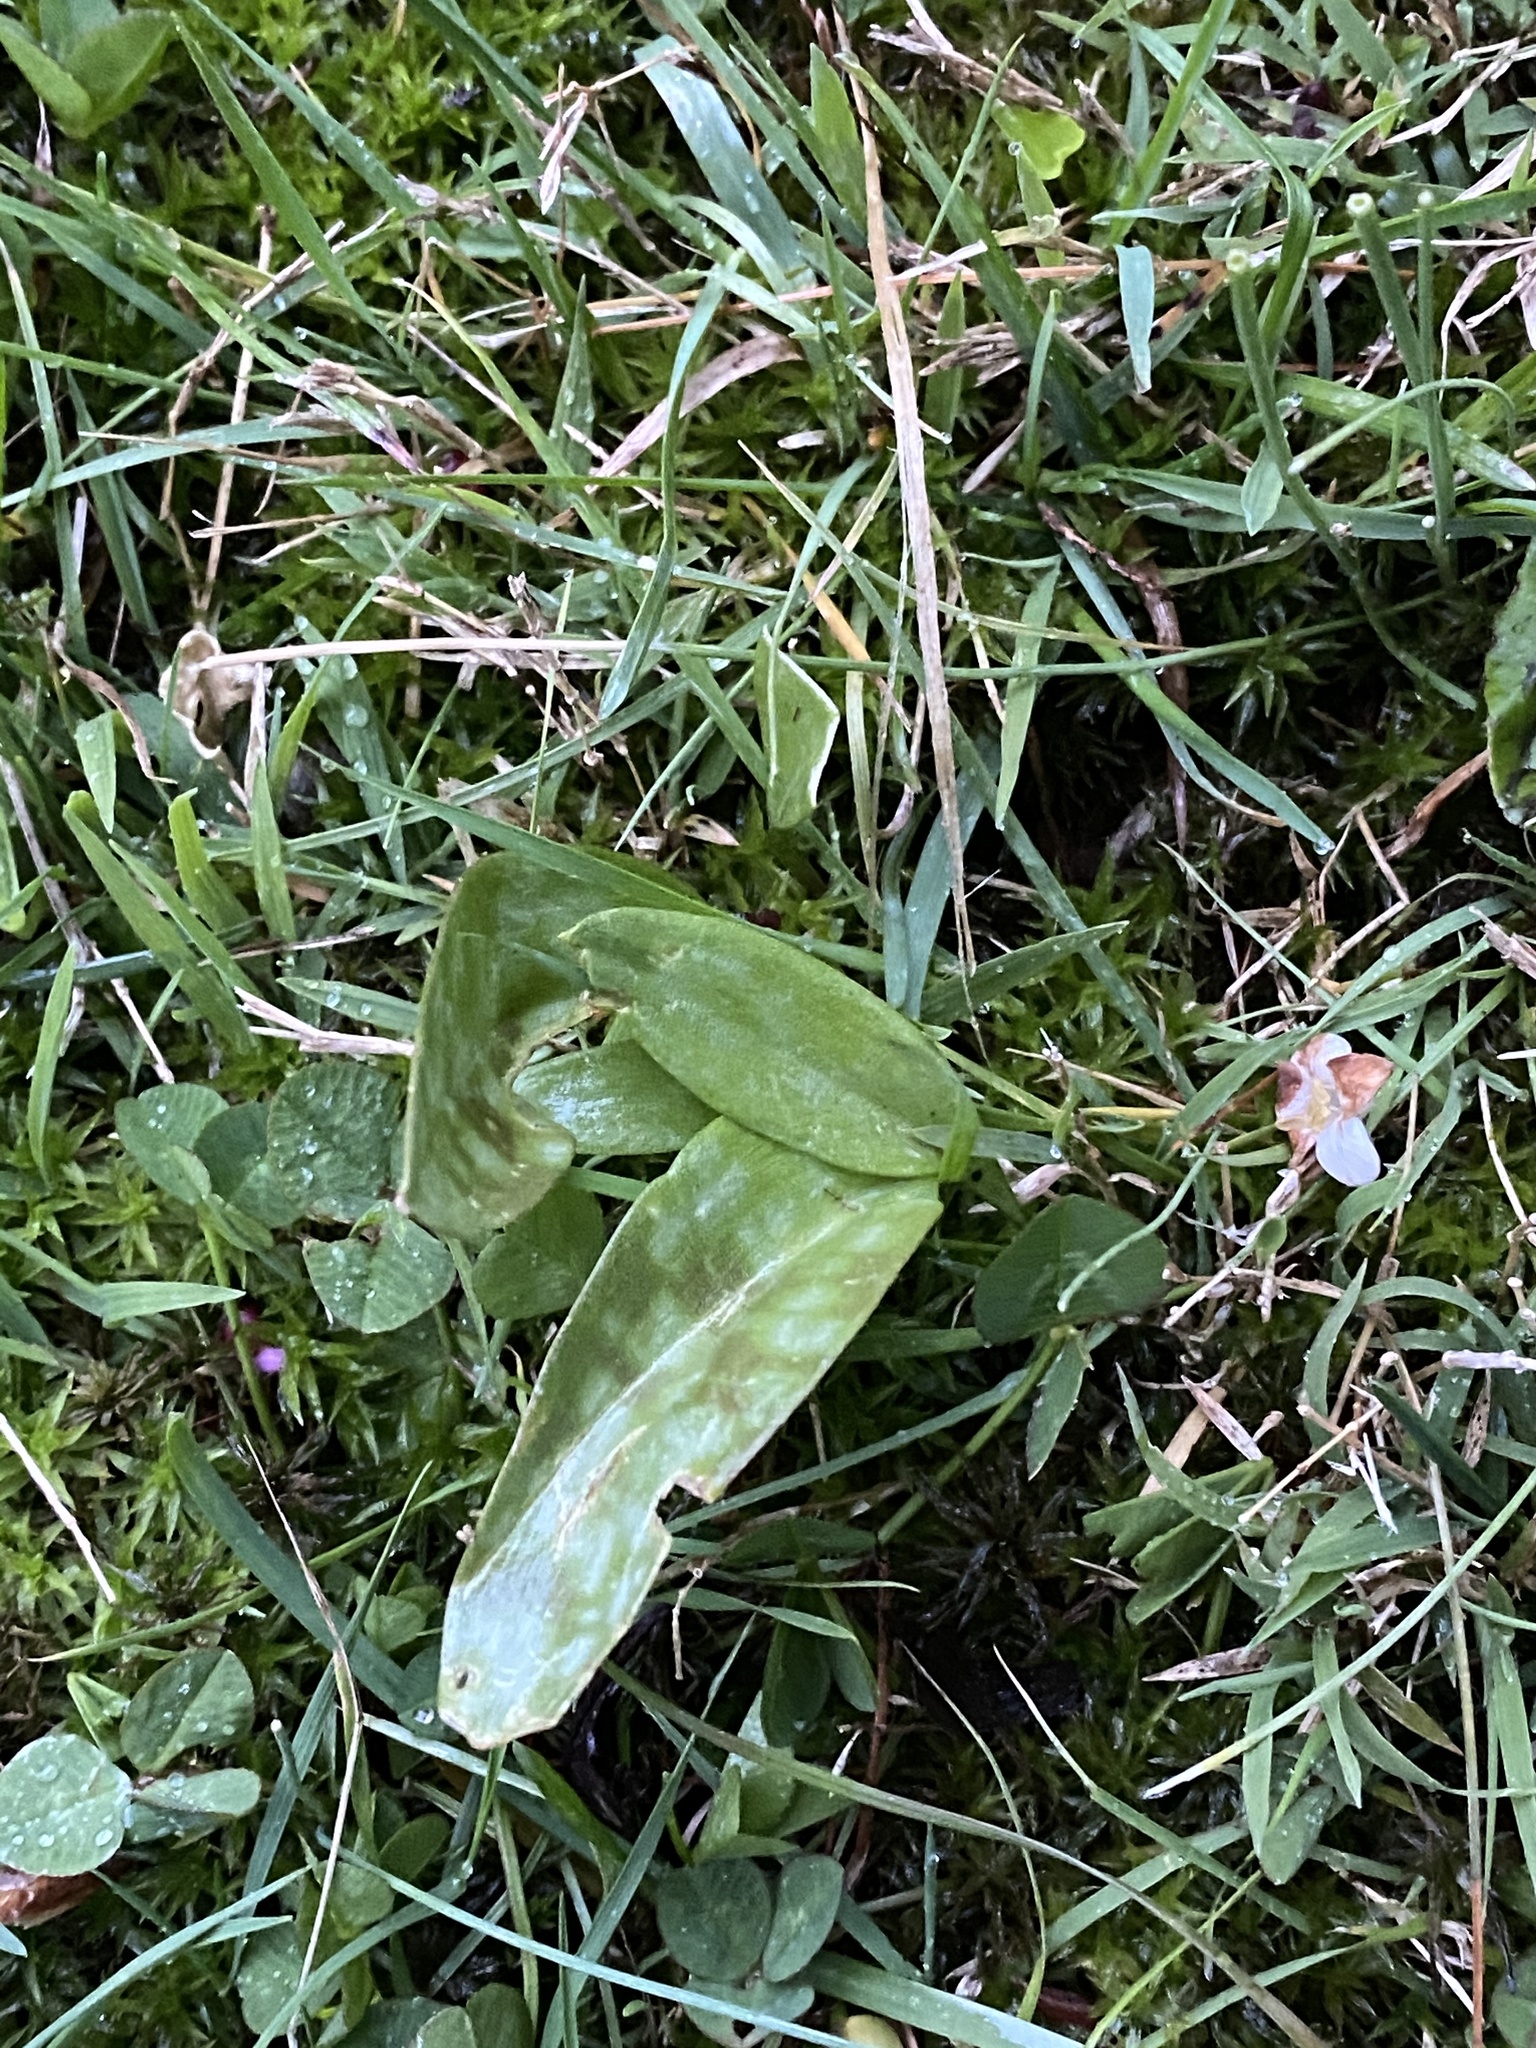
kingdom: Plantae
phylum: Tracheophyta
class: Liliopsida
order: Liliales
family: Liliaceae
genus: Erythronium
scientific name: Erythronium americanum
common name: Yellow adder's-tongue
